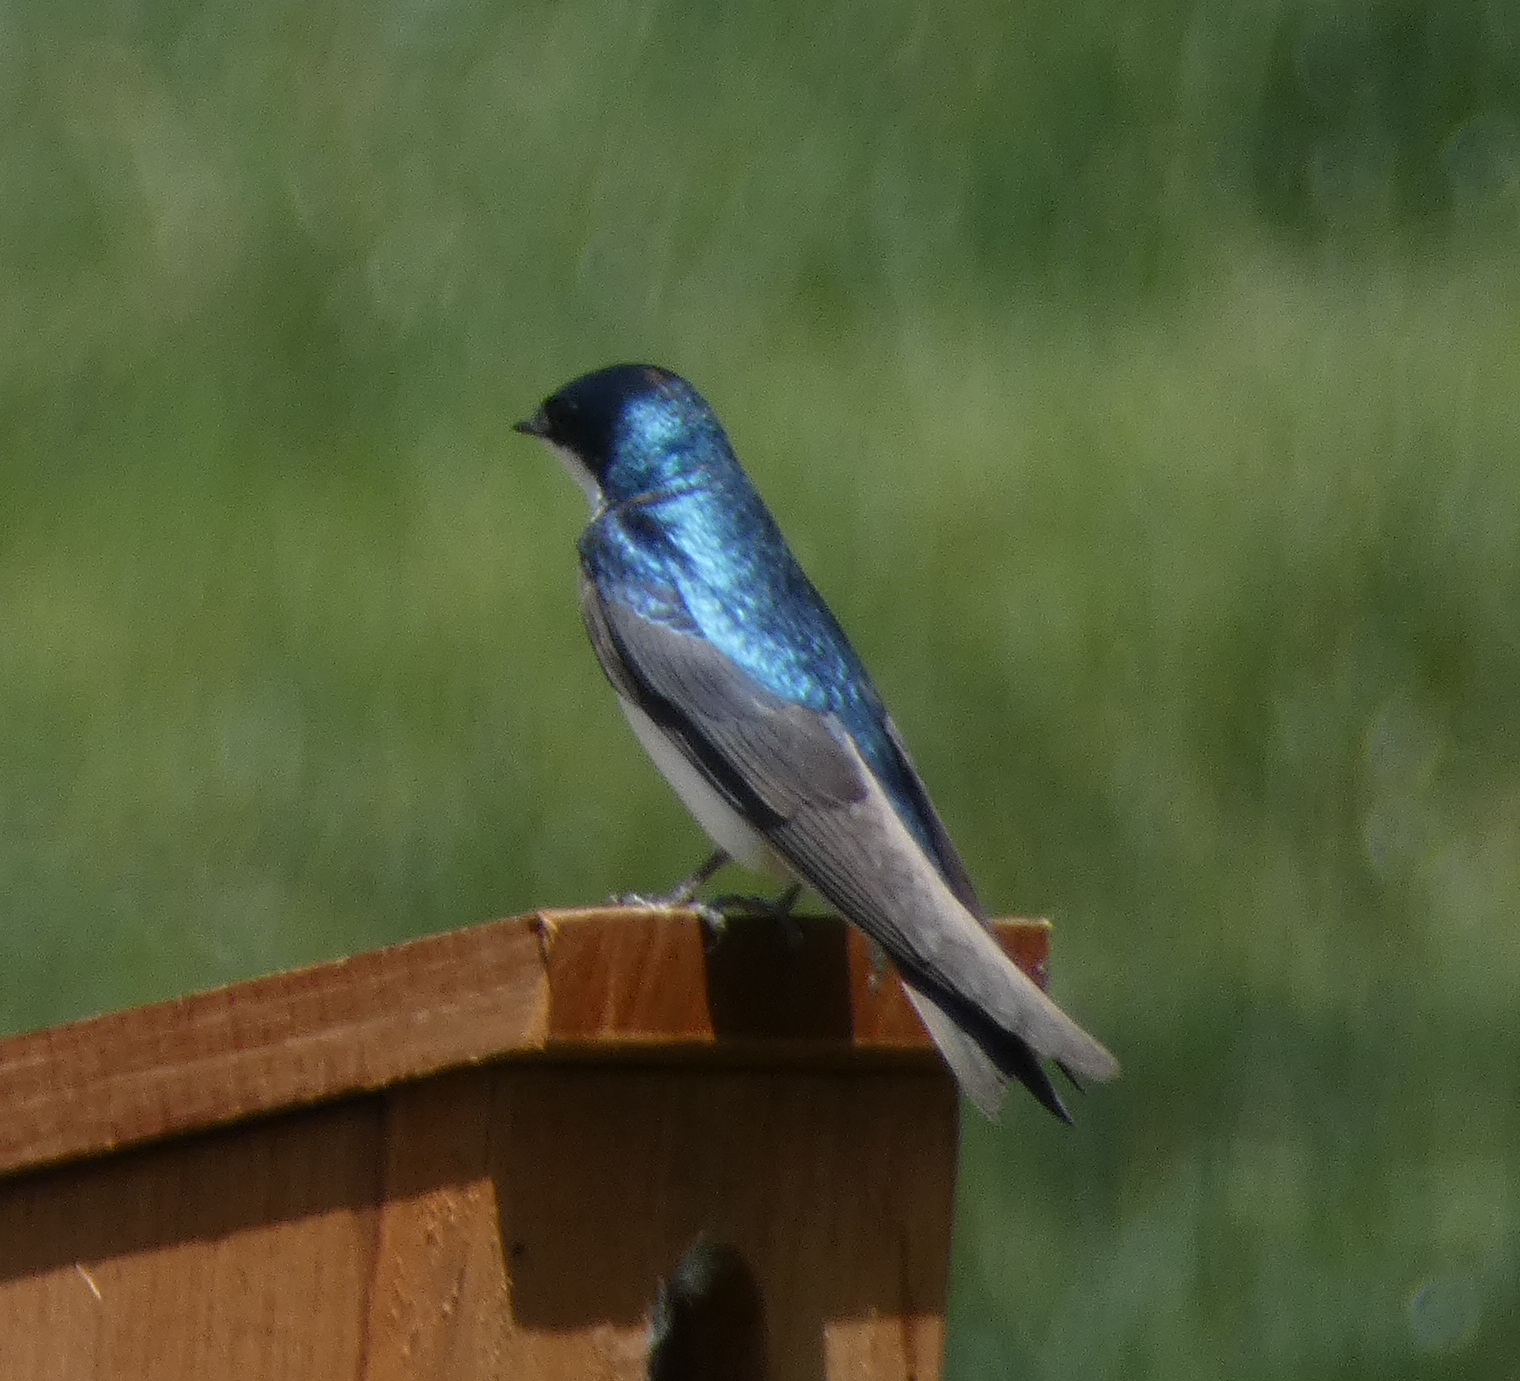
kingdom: Animalia
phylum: Chordata
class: Aves
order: Passeriformes
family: Hirundinidae
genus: Tachycineta
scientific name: Tachycineta bicolor
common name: Tree swallow
